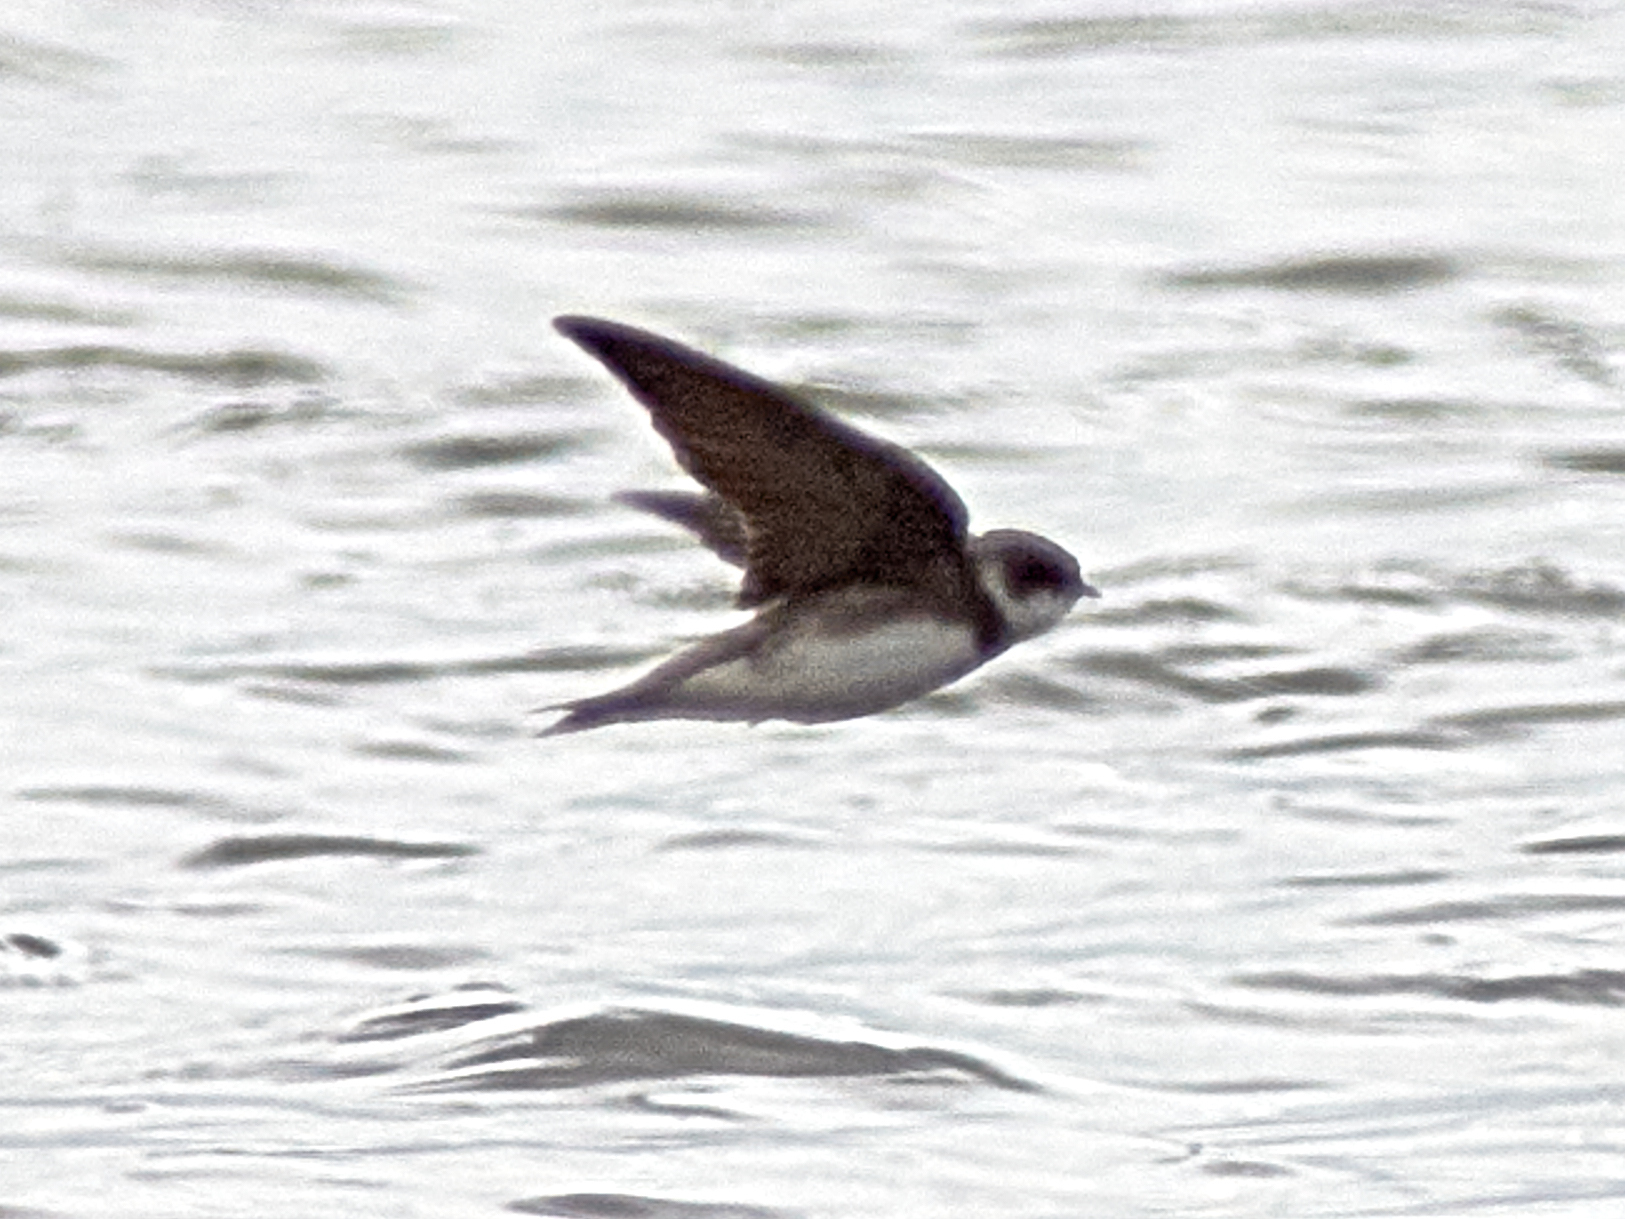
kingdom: Animalia
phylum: Chordata
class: Aves
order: Passeriformes
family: Hirundinidae
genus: Riparia
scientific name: Riparia riparia
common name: Sand martin
